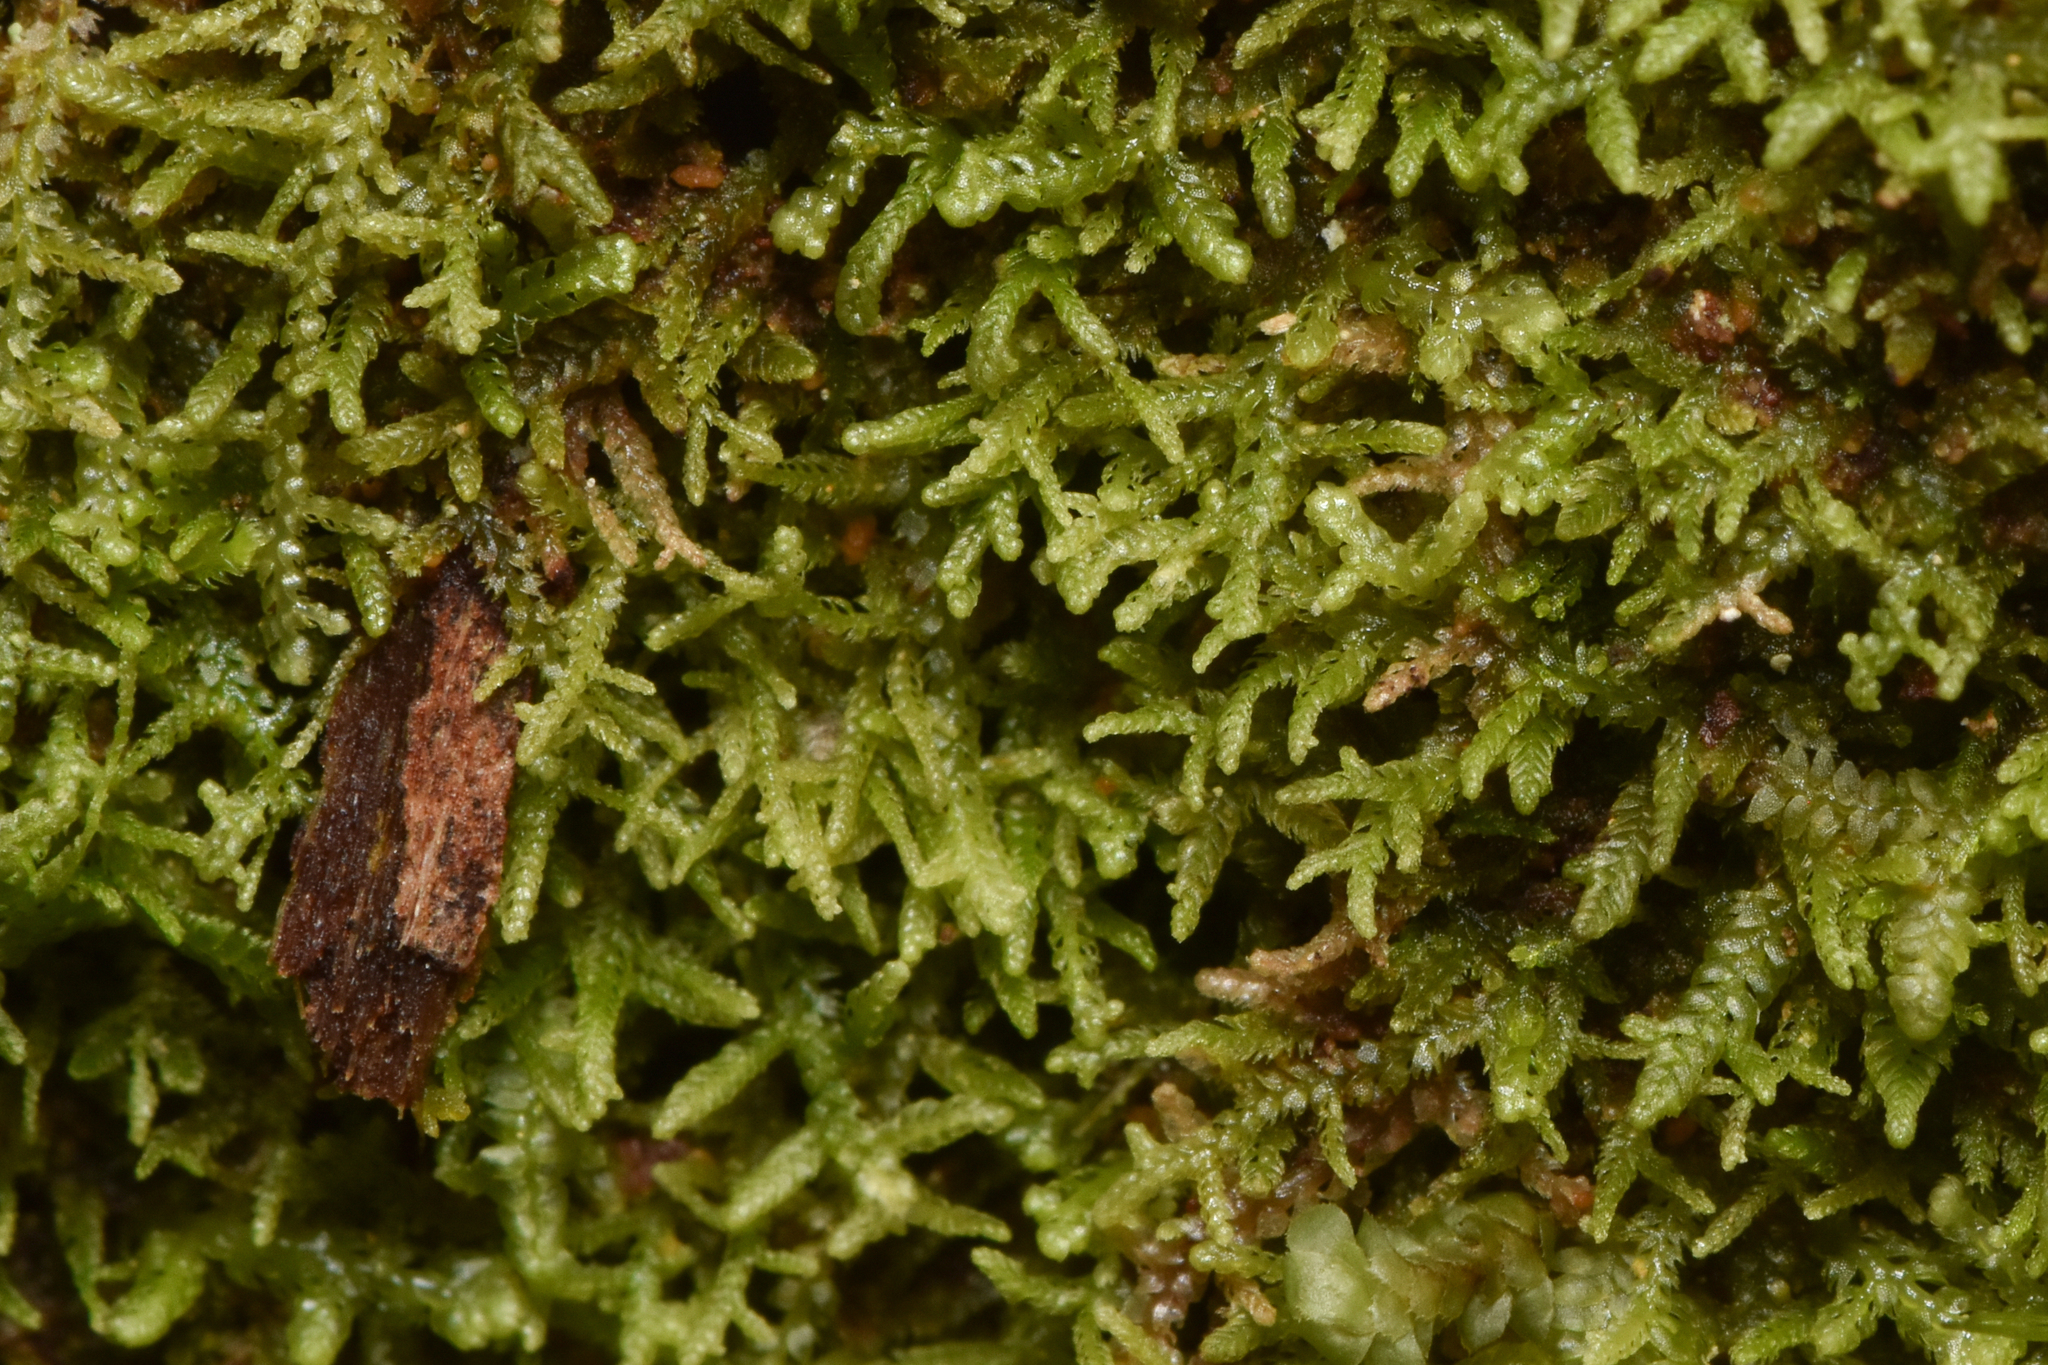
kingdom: Plantae
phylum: Marchantiophyta
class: Jungermanniopsida
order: Jungermanniales
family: Lepidoziaceae
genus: Lepidozia
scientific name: Lepidozia reptans
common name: Creeping fingerwort
